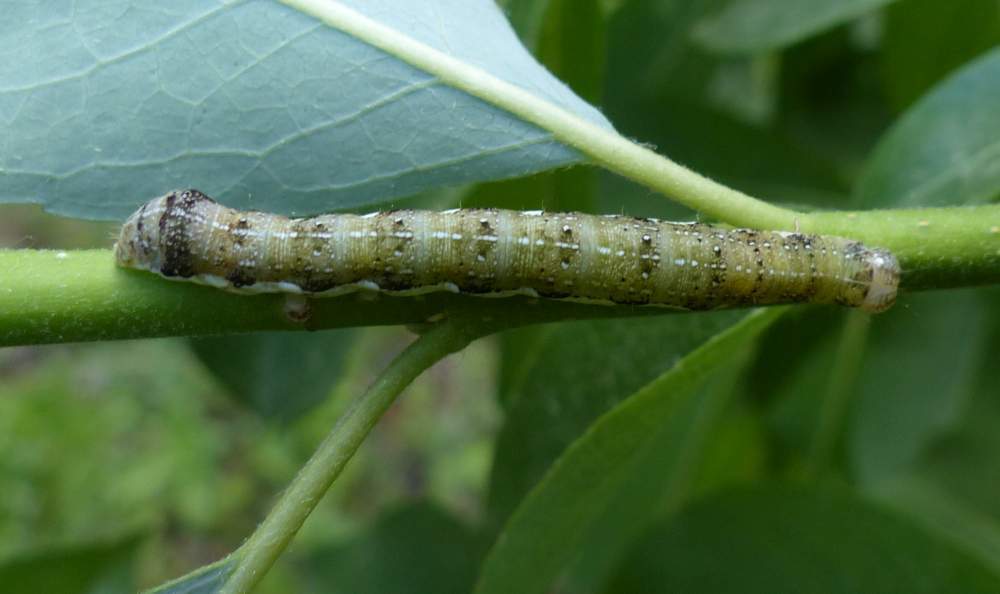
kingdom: Animalia
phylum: Arthropoda
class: Insecta
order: Lepidoptera
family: Noctuidae
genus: Orthosia
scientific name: Orthosia rubescens
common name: Ruby quaker
